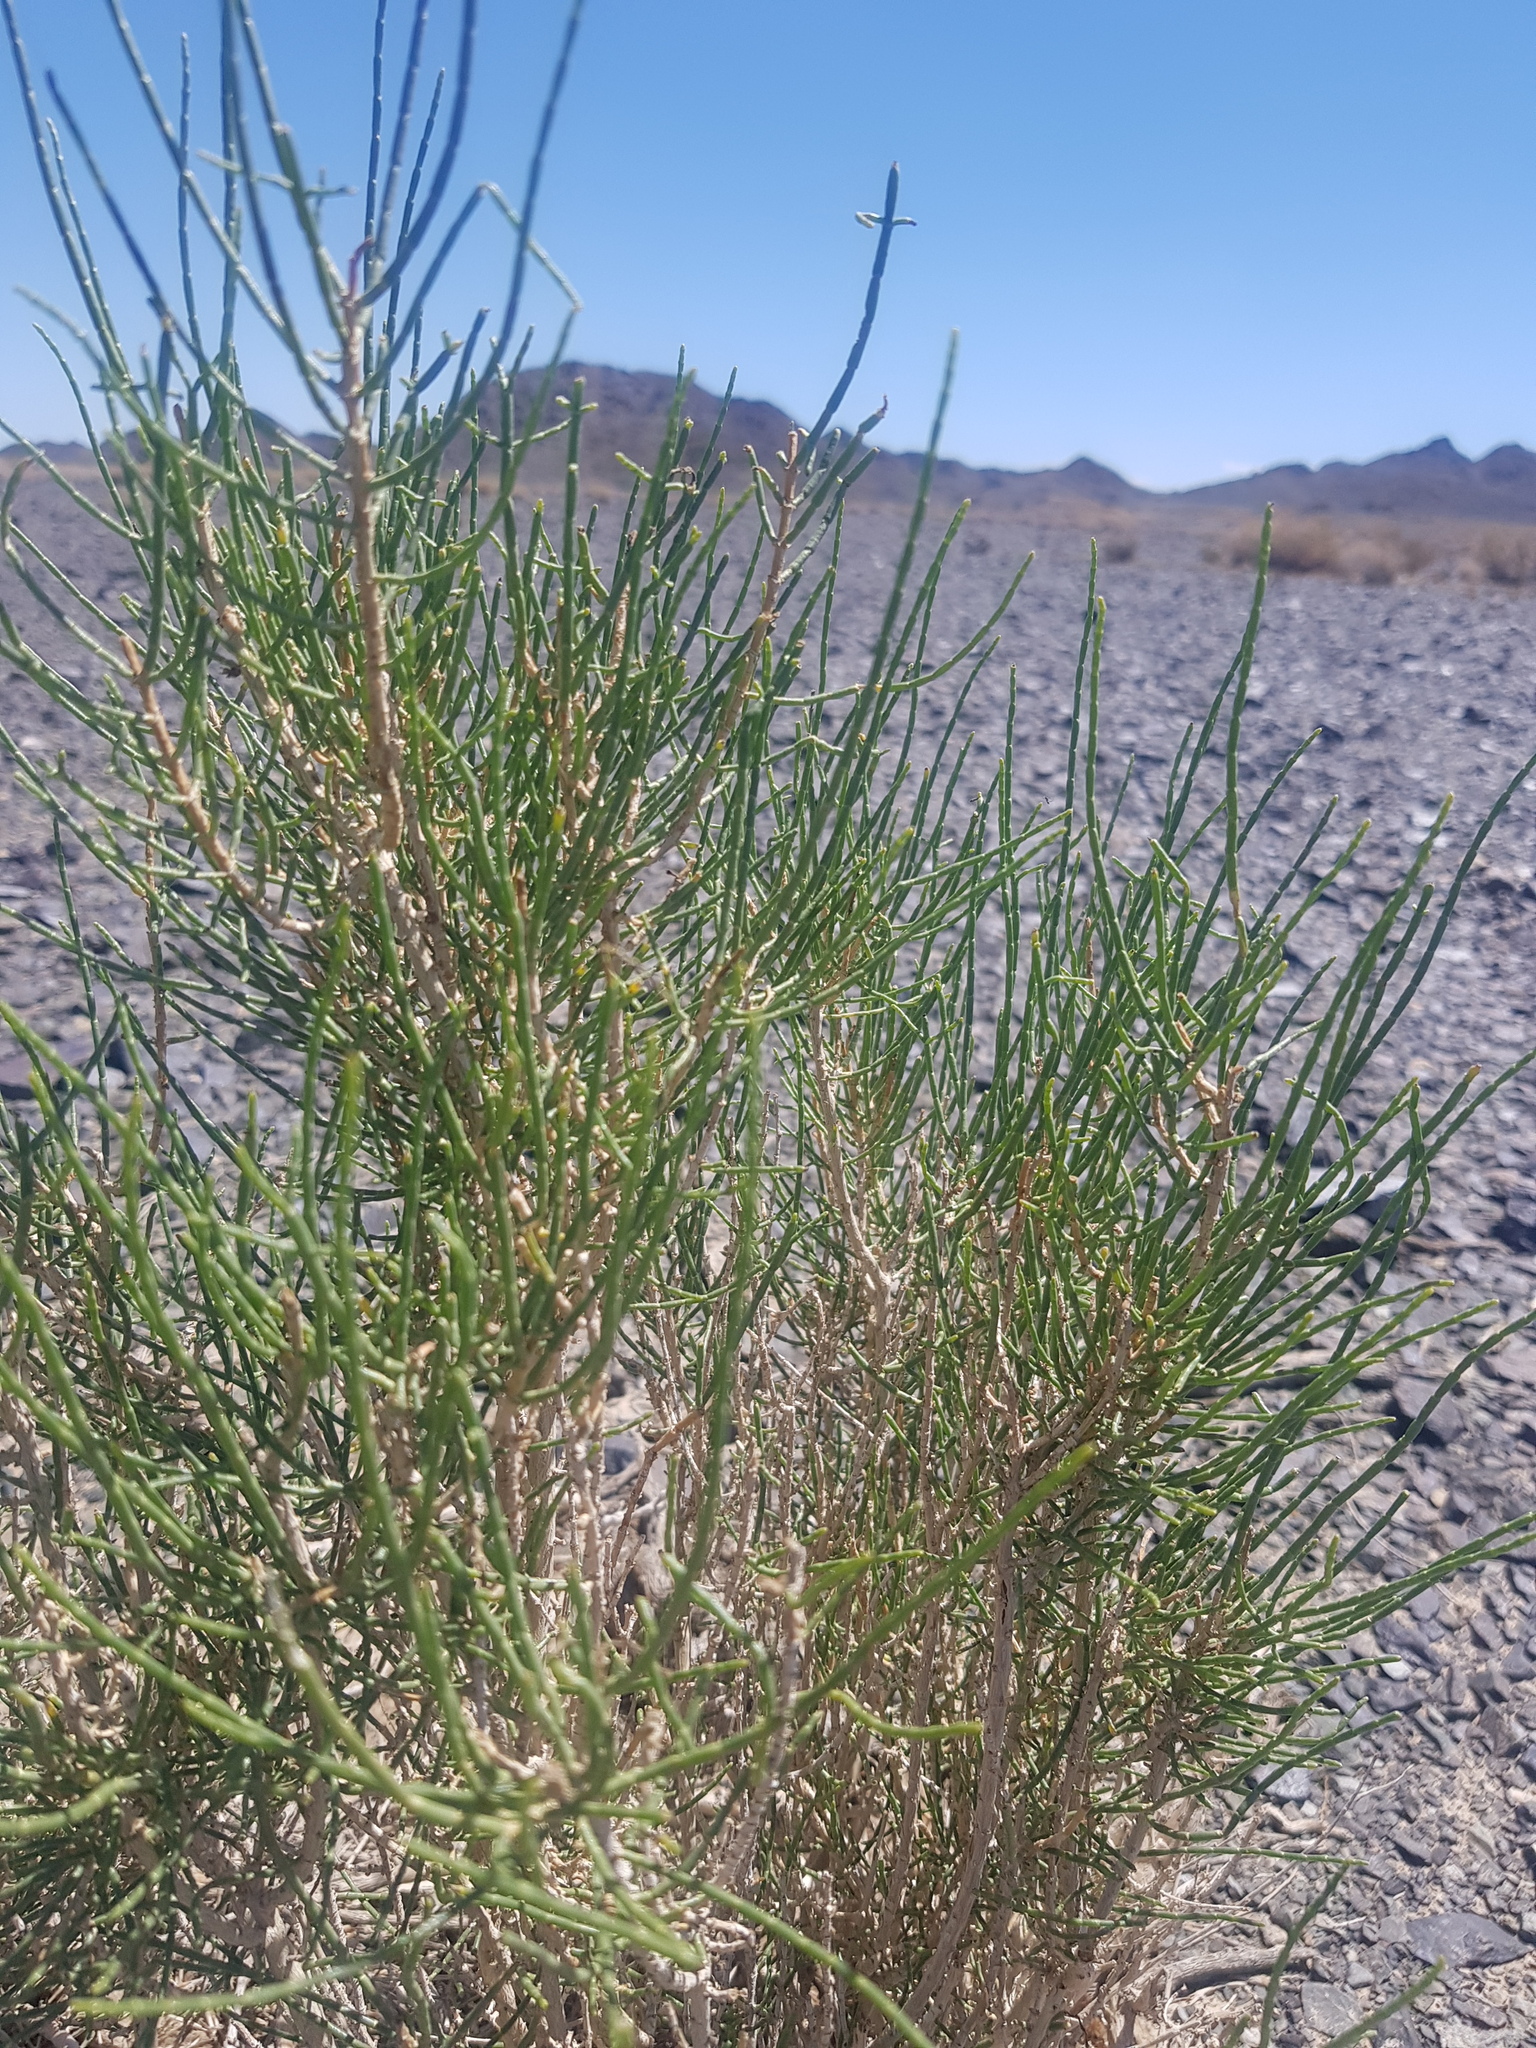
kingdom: Plantae
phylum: Tracheophyta
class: Magnoliopsida
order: Caryophyllales
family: Amaranthaceae
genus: Haloxylon
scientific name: Haloxylon ammodendron
